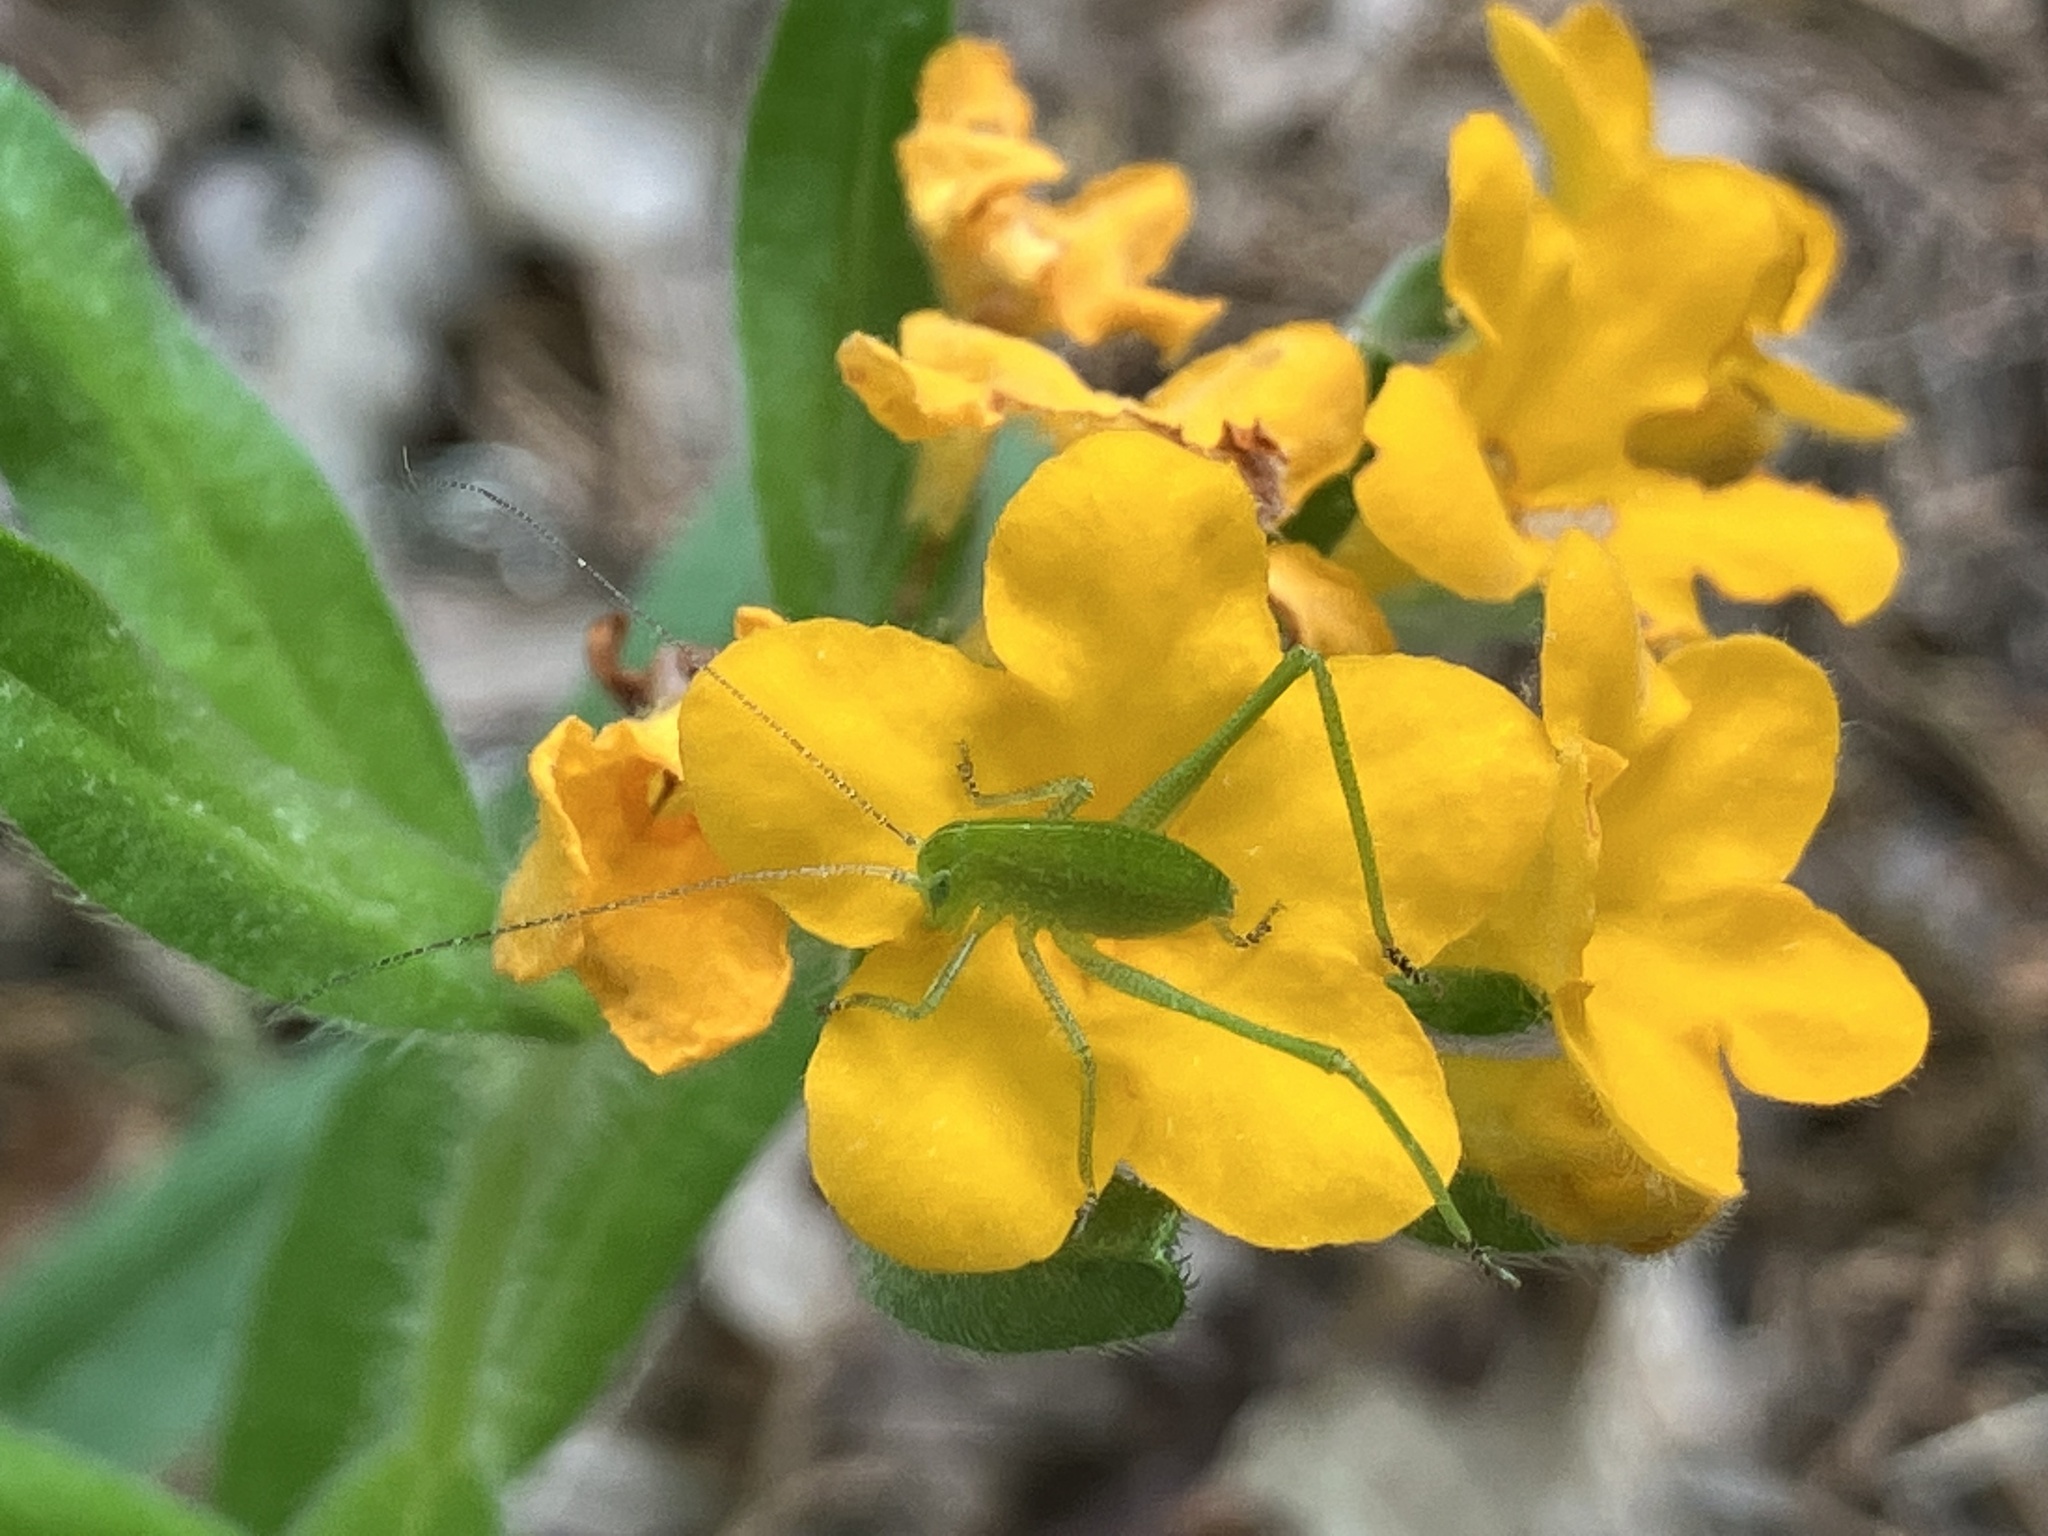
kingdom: Plantae
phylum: Tracheophyta
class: Magnoliopsida
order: Boraginales
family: Boraginaceae
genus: Lithospermum
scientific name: Lithospermum canescens
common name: Hoary puccoon
